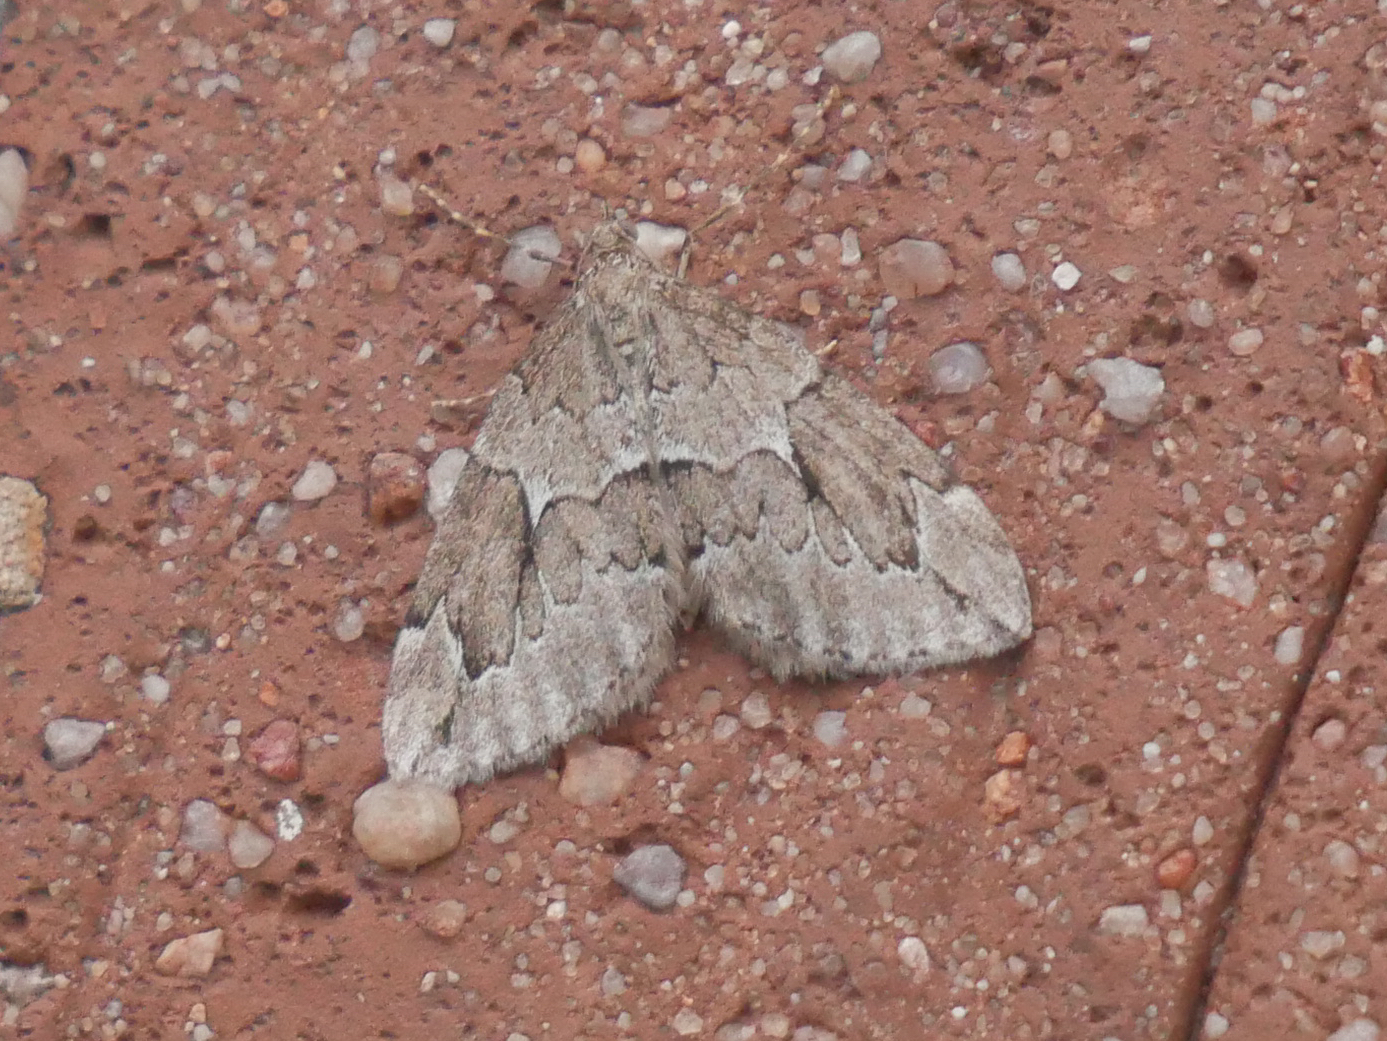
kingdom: Animalia
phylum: Arthropoda
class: Insecta
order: Lepidoptera
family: Geometridae
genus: Thera
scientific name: Thera juniperata
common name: Juniper carpet
